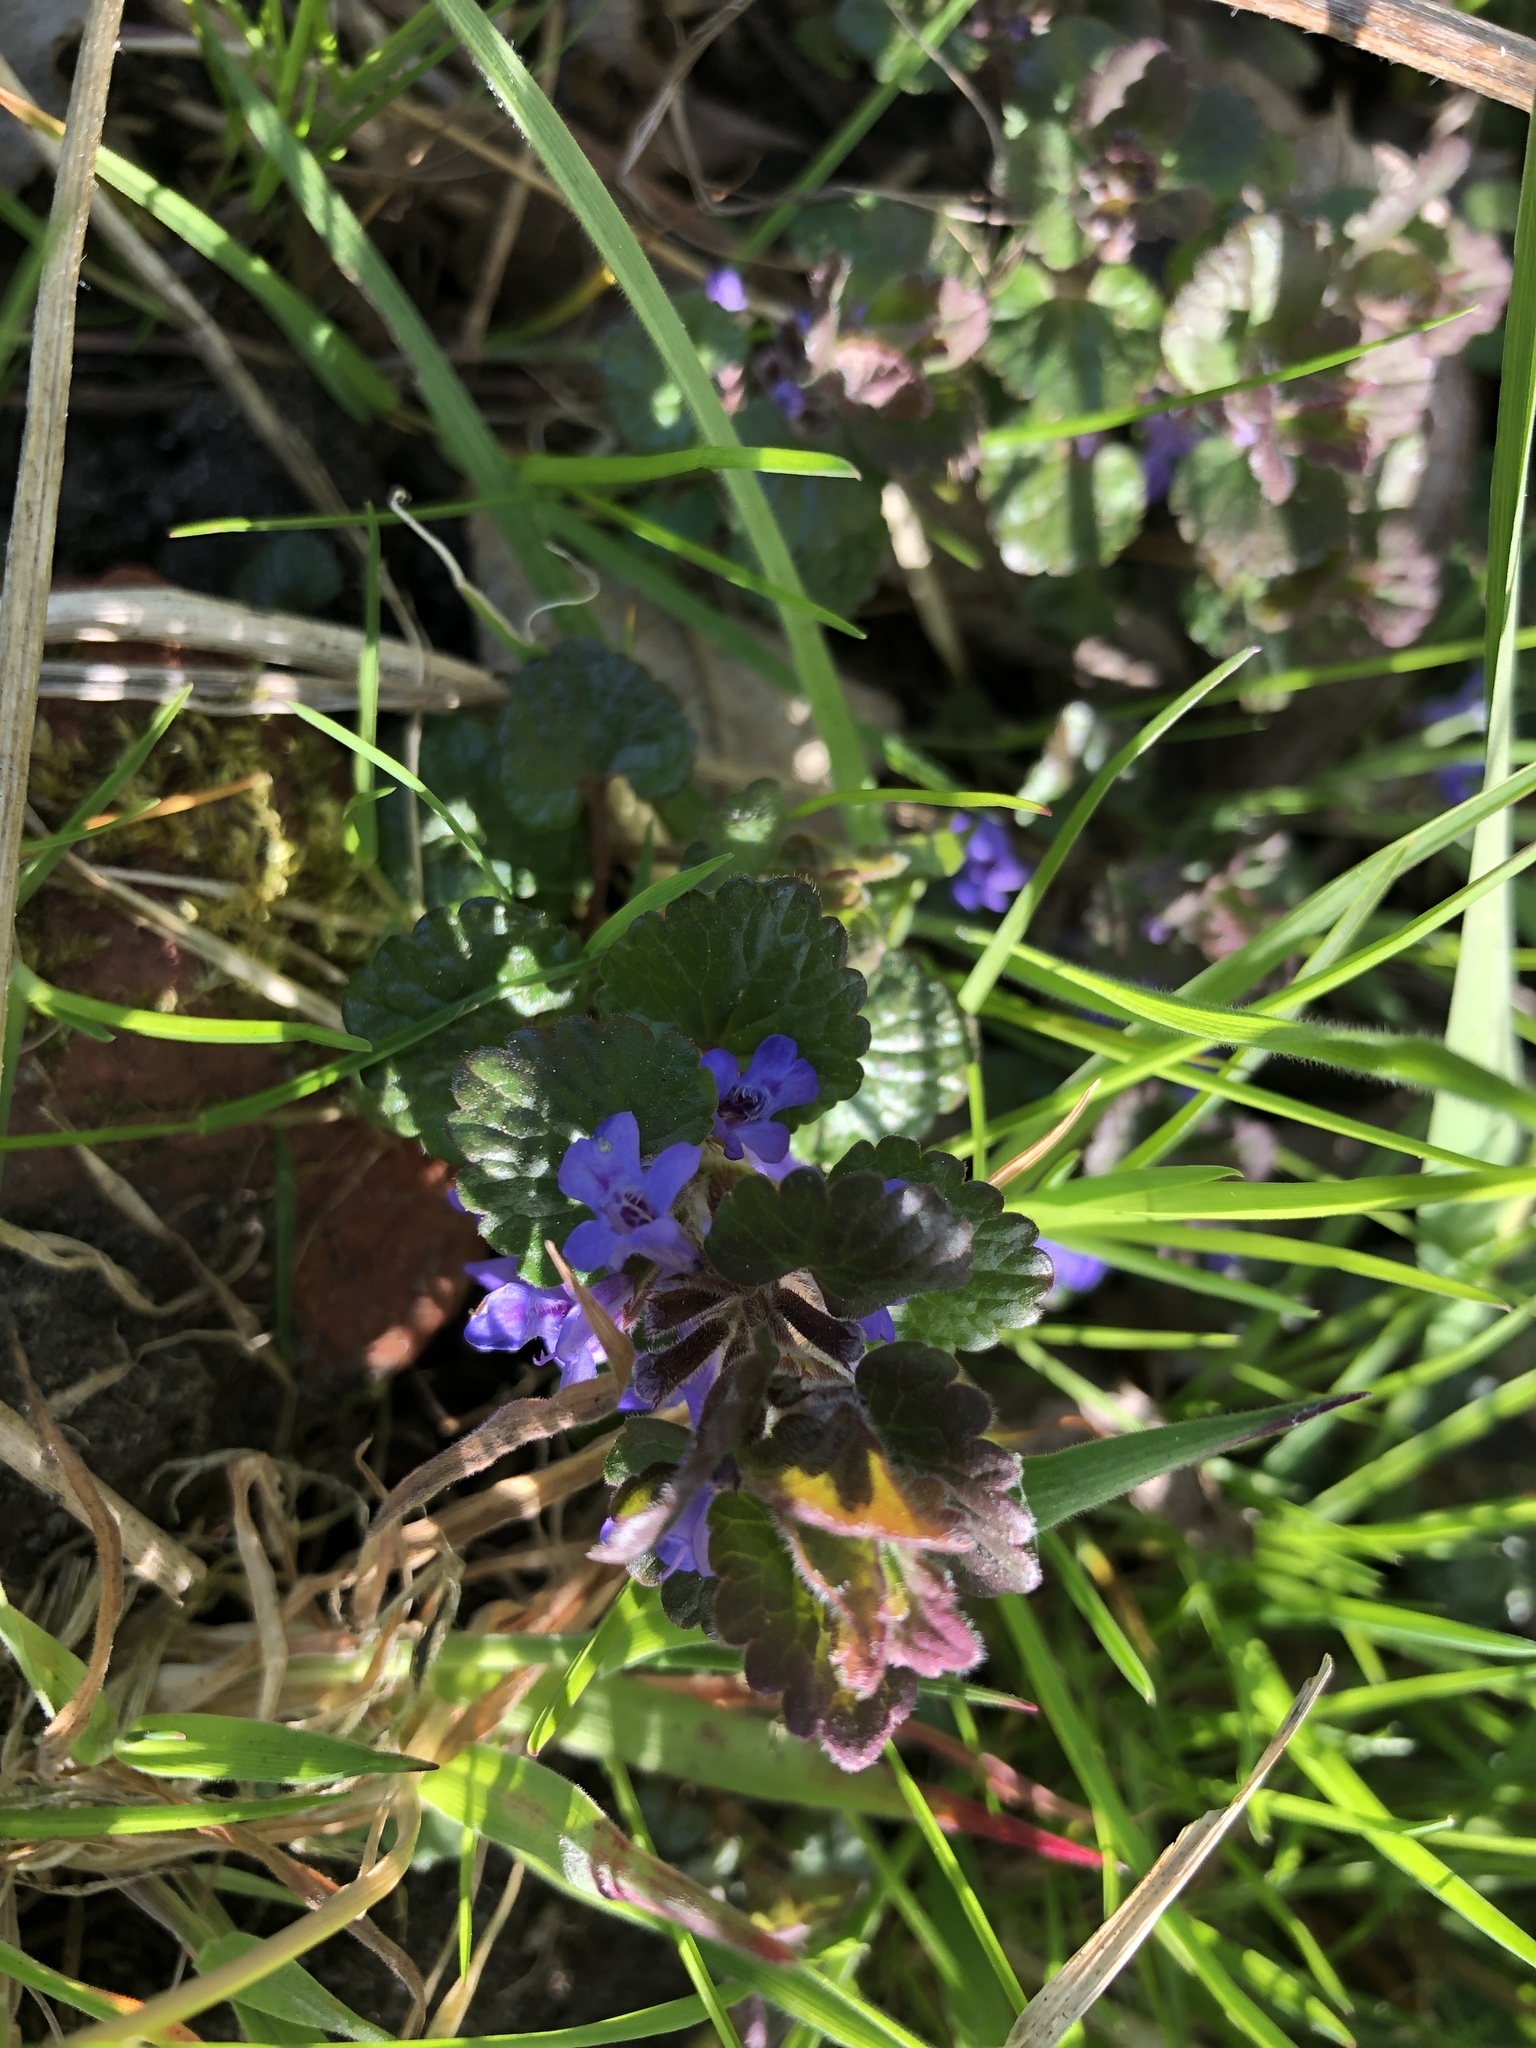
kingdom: Plantae
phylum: Tracheophyta
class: Magnoliopsida
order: Lamiales
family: Lamiaceae
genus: Glechoma
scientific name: Glechoma hederacea
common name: Ground ivy
